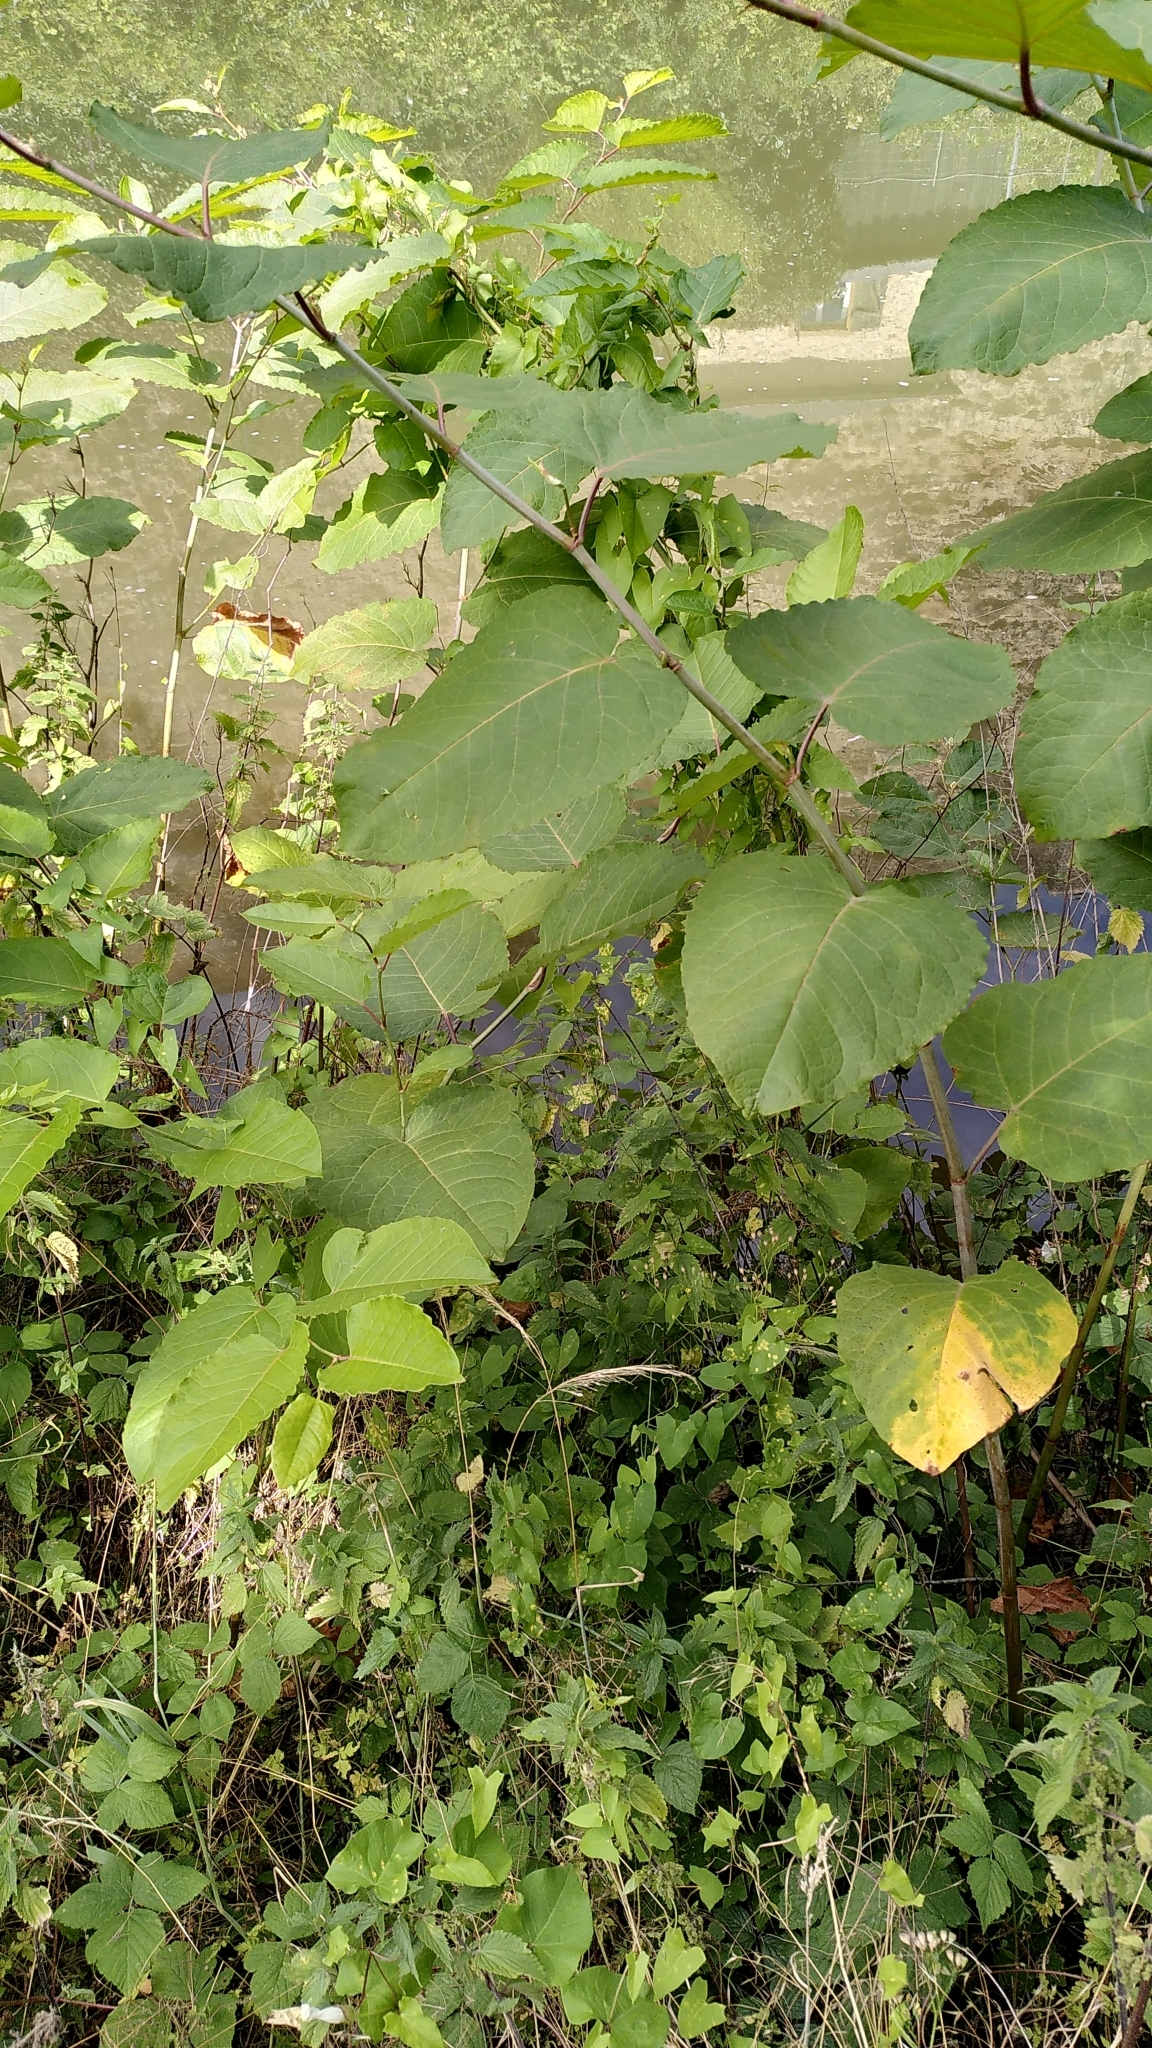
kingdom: Plantae
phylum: Tracheophyta
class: Magnoliopsida
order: Caryophyllales
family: Polygonaceae
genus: Reynoutria
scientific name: Reynoutria sachalinensis
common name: Giant knotweed
